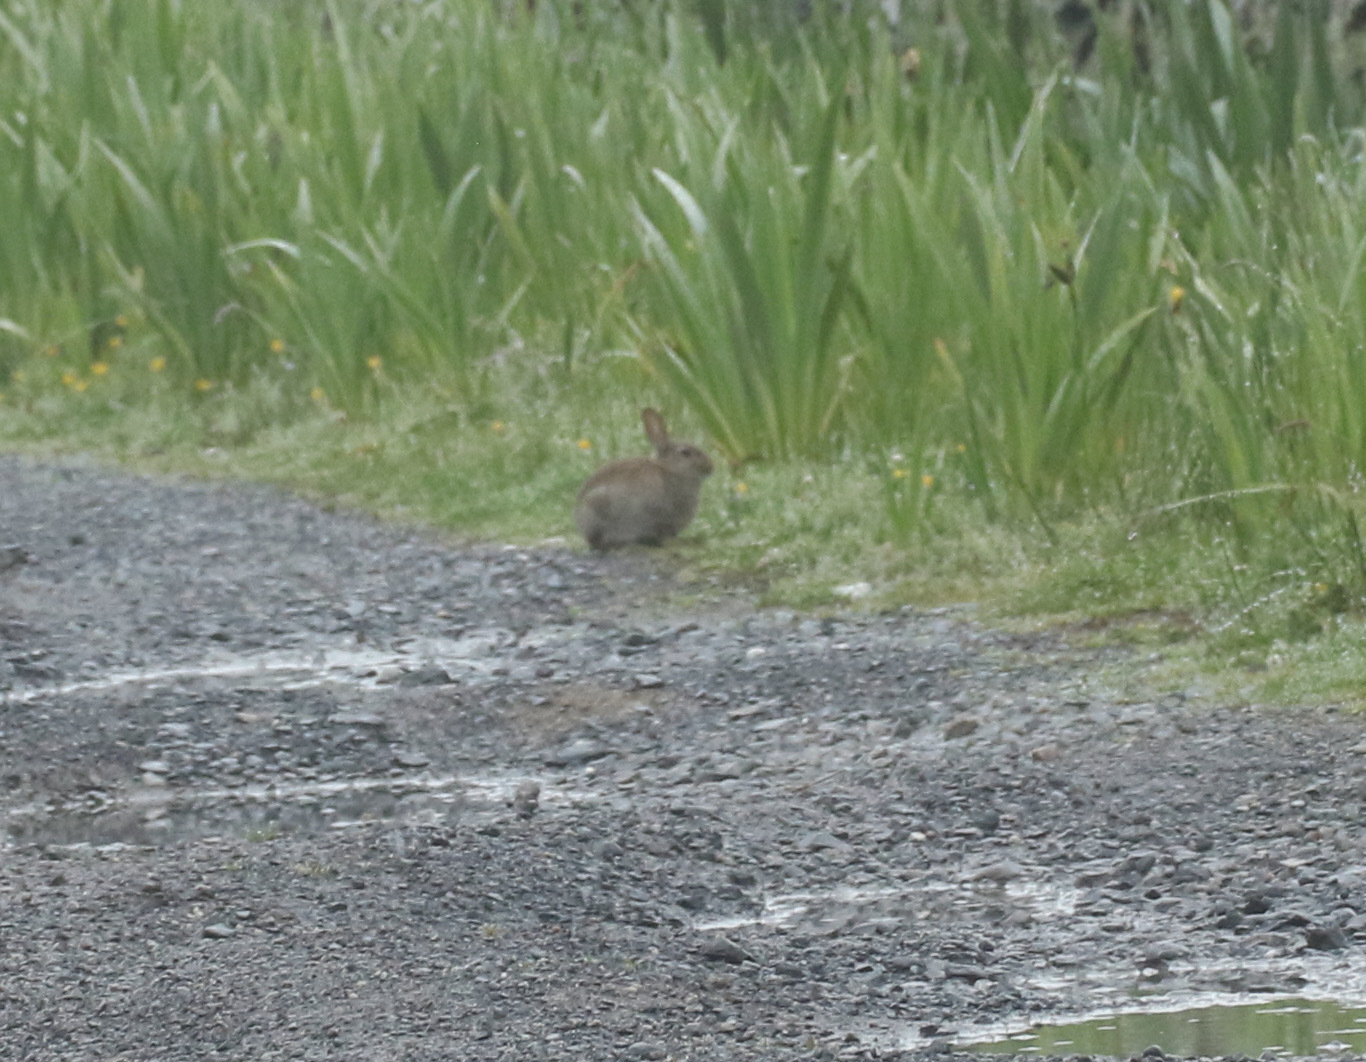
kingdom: Animalia
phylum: Chordata
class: Mammalia
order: Lagomorpha
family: Leporidae
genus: Oryctolagus
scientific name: Oryctolagus cuniculus
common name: European rabbit
